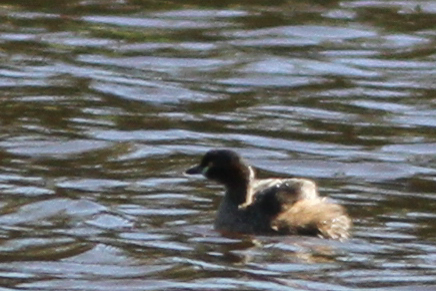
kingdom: Animalia
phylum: Chordata
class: Aves
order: Podicipediformes
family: Podicipedidae
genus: Tachybaptus
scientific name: Tachybaptus novaehollandiae
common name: Australasian grebe
